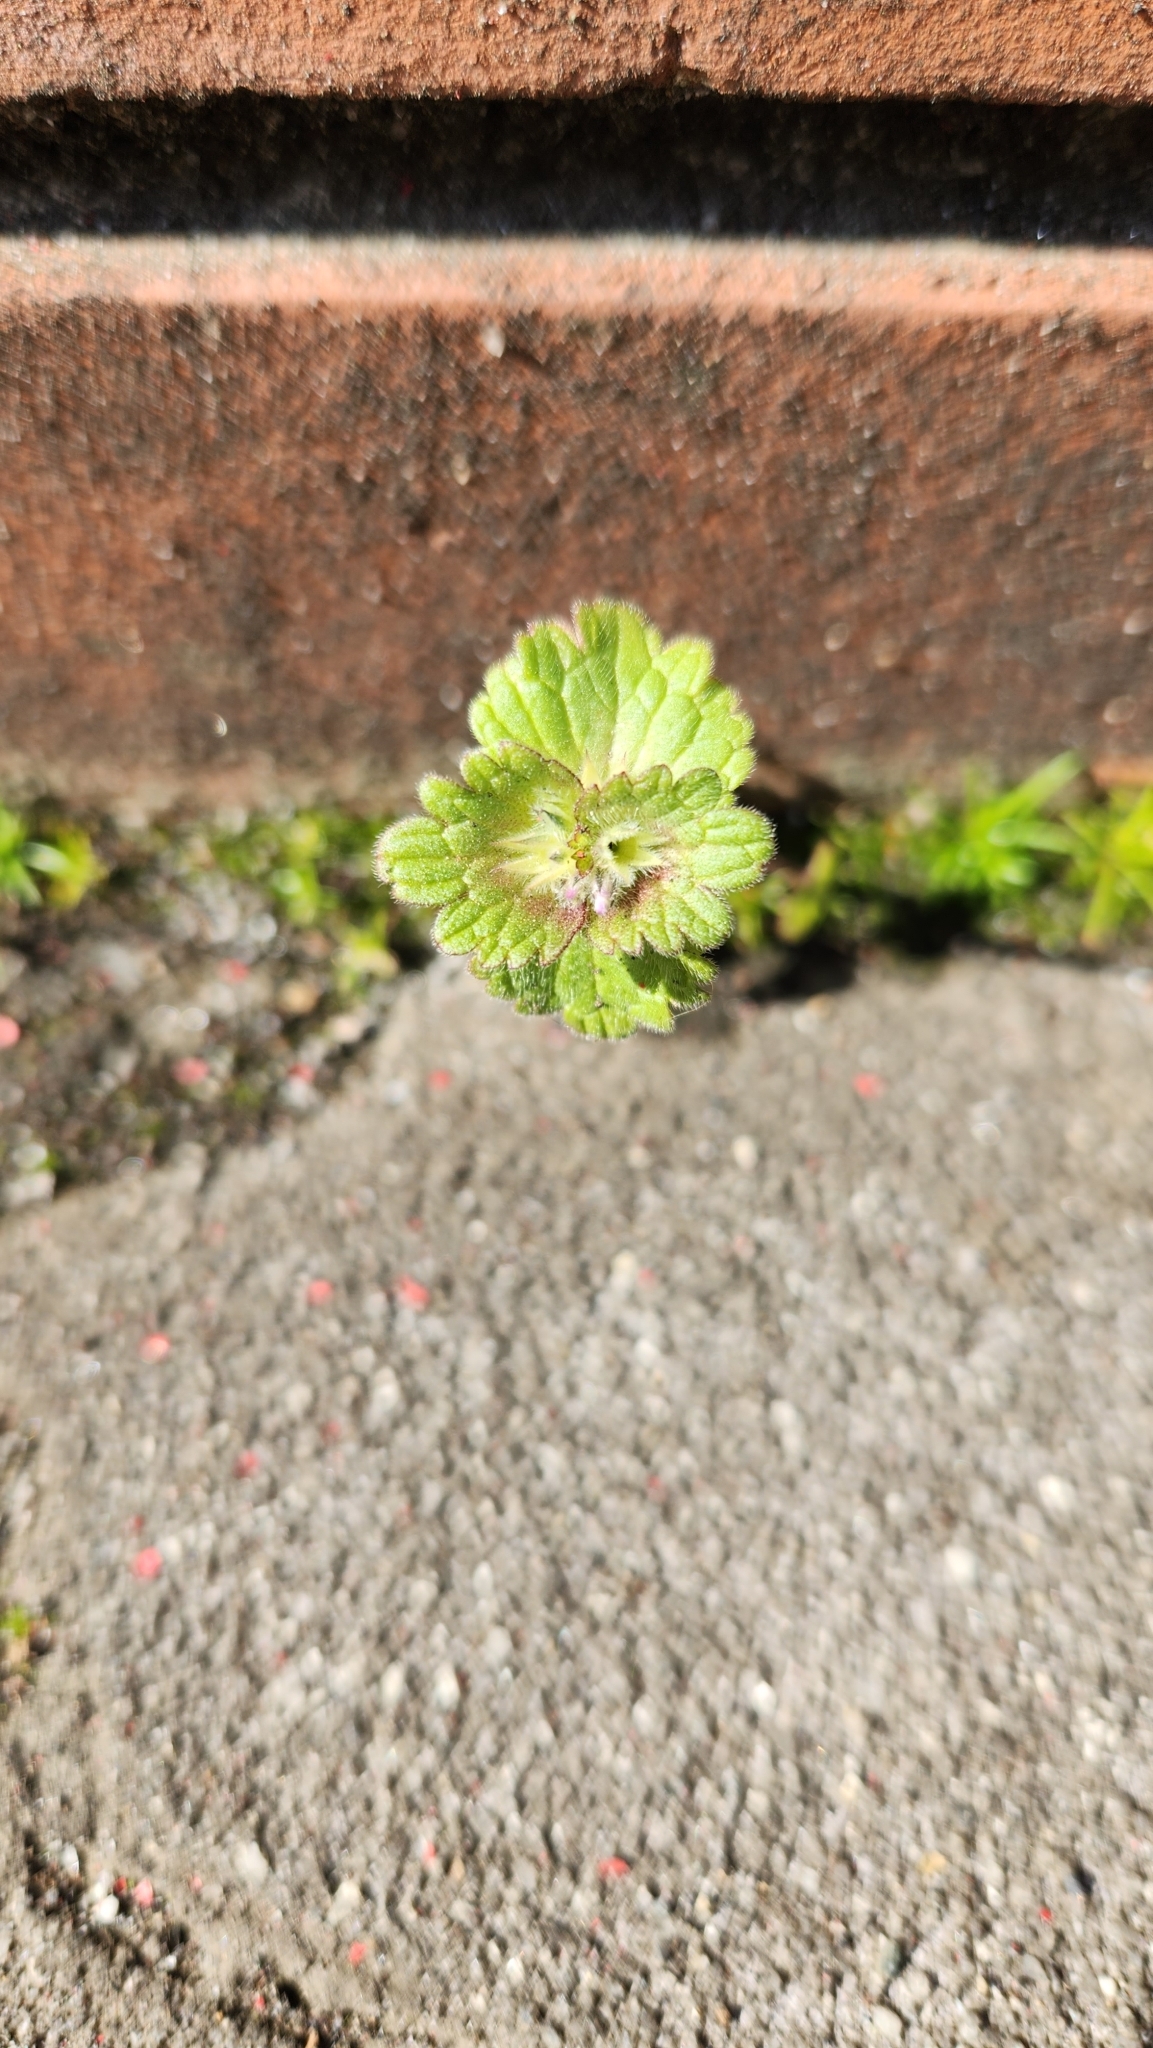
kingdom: Plantae
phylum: Tracheophyta
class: Magnoliopsida
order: Lamiales
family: Lamiaceae
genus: Lamium
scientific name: Lamium amplexicaule
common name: Henbit dead-nettle
